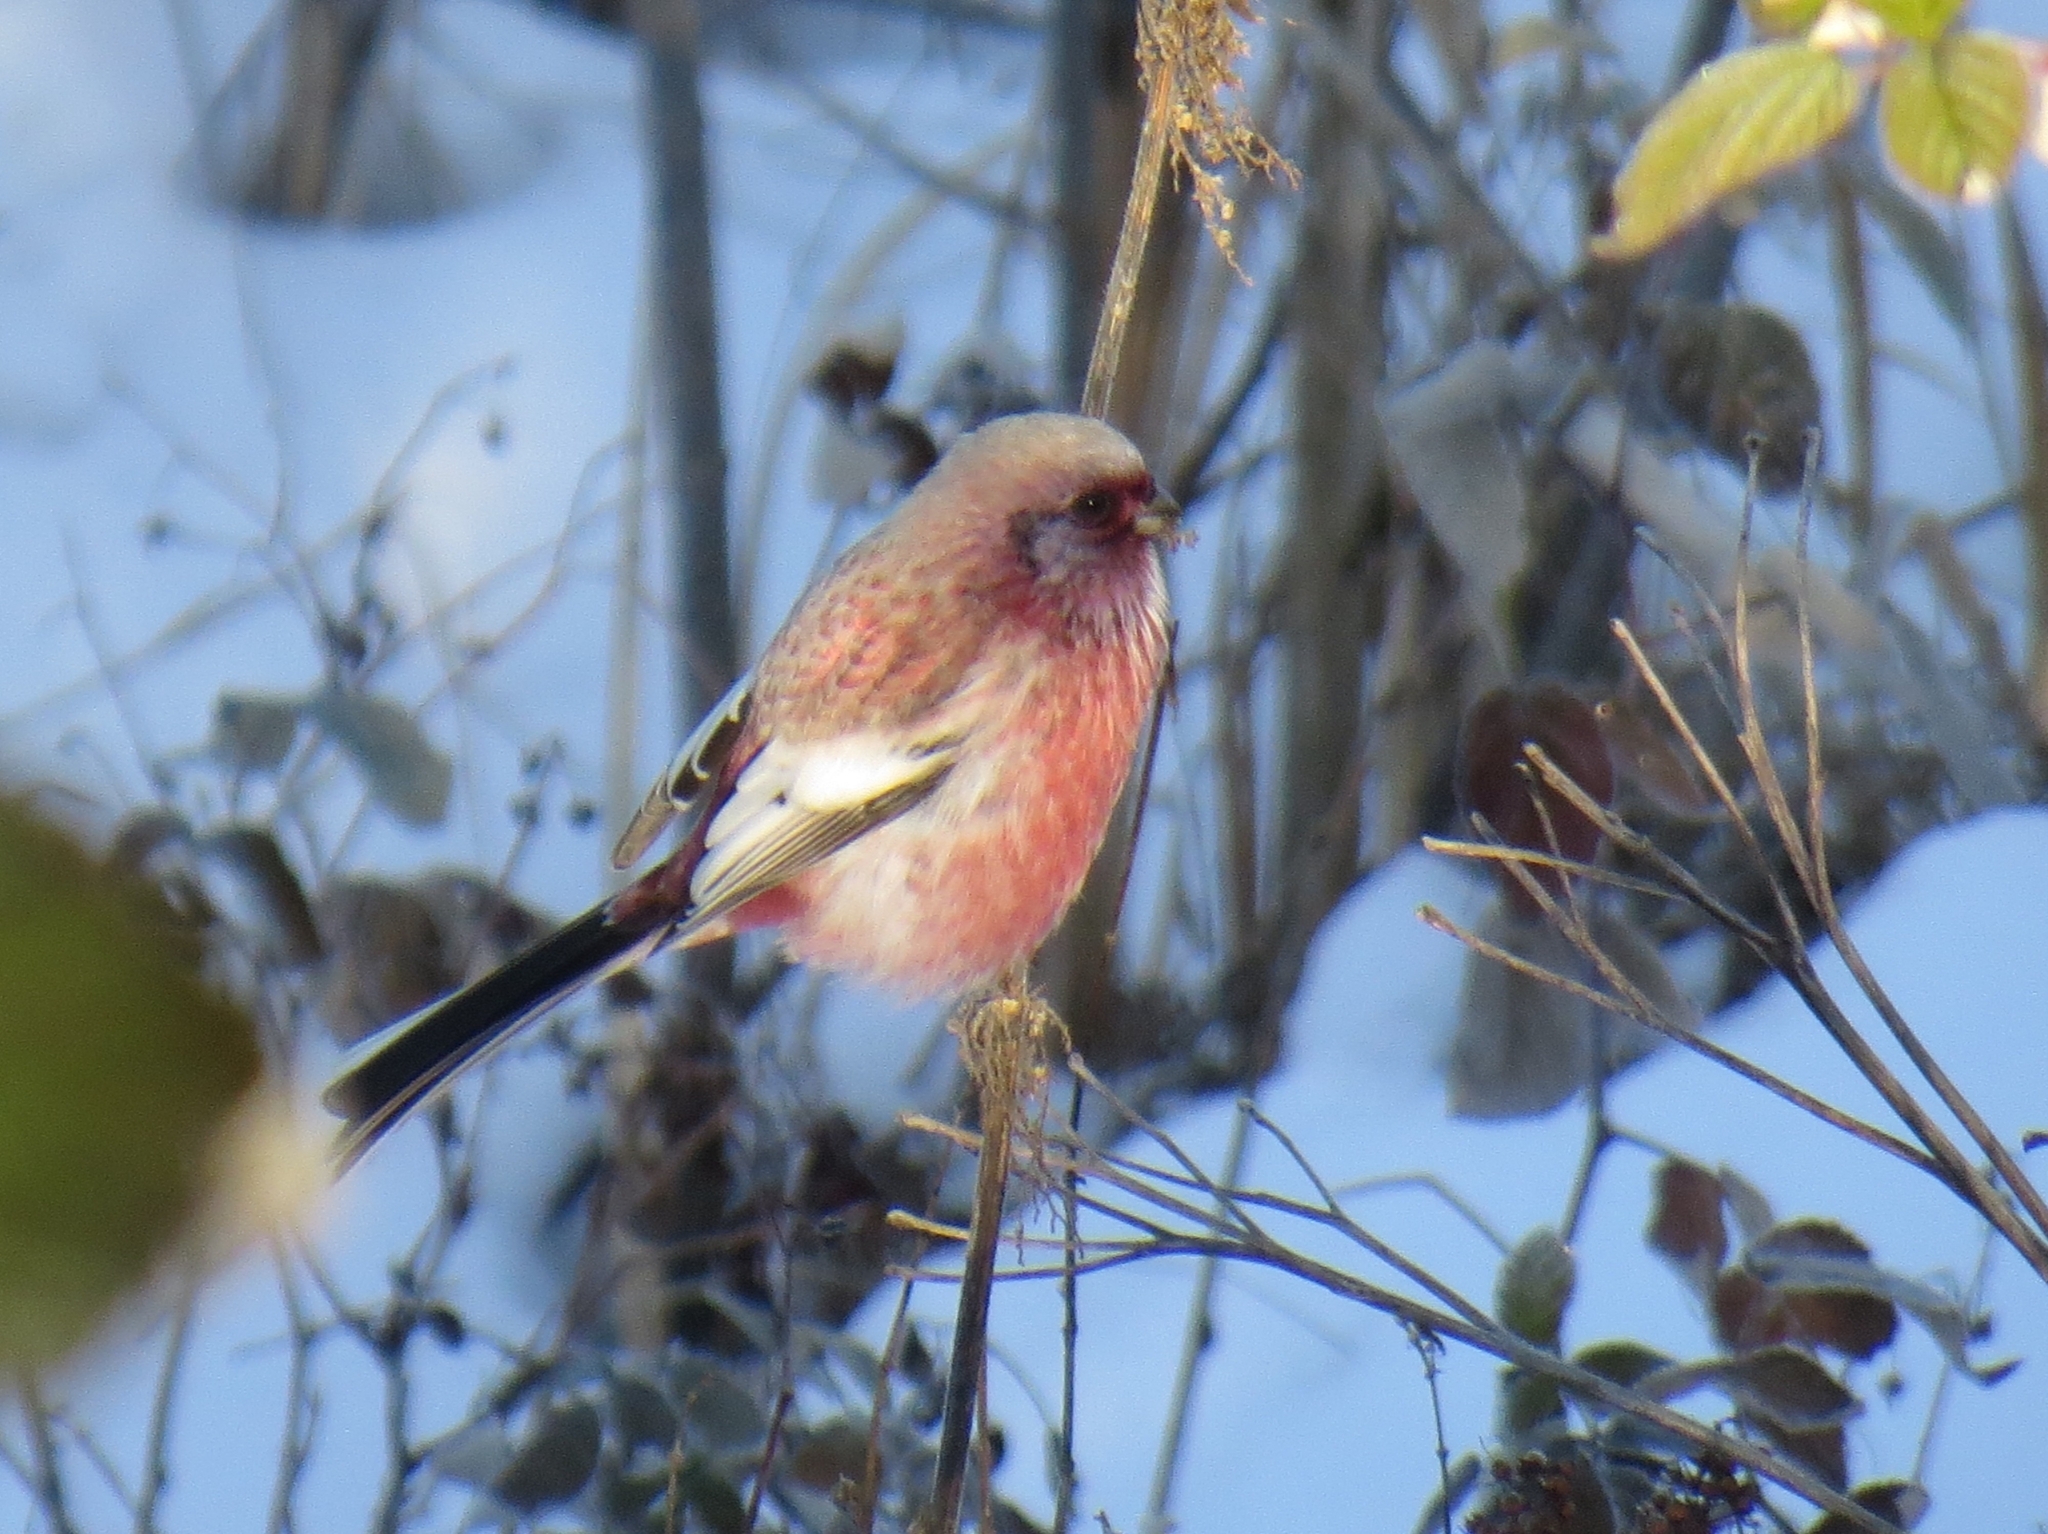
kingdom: Animalia
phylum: Chordata
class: Aves
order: Passeriformes
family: Fringillidae
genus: Carpodacus
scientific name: Carpodacus sibiricus
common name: Long-tailed rosefinch
